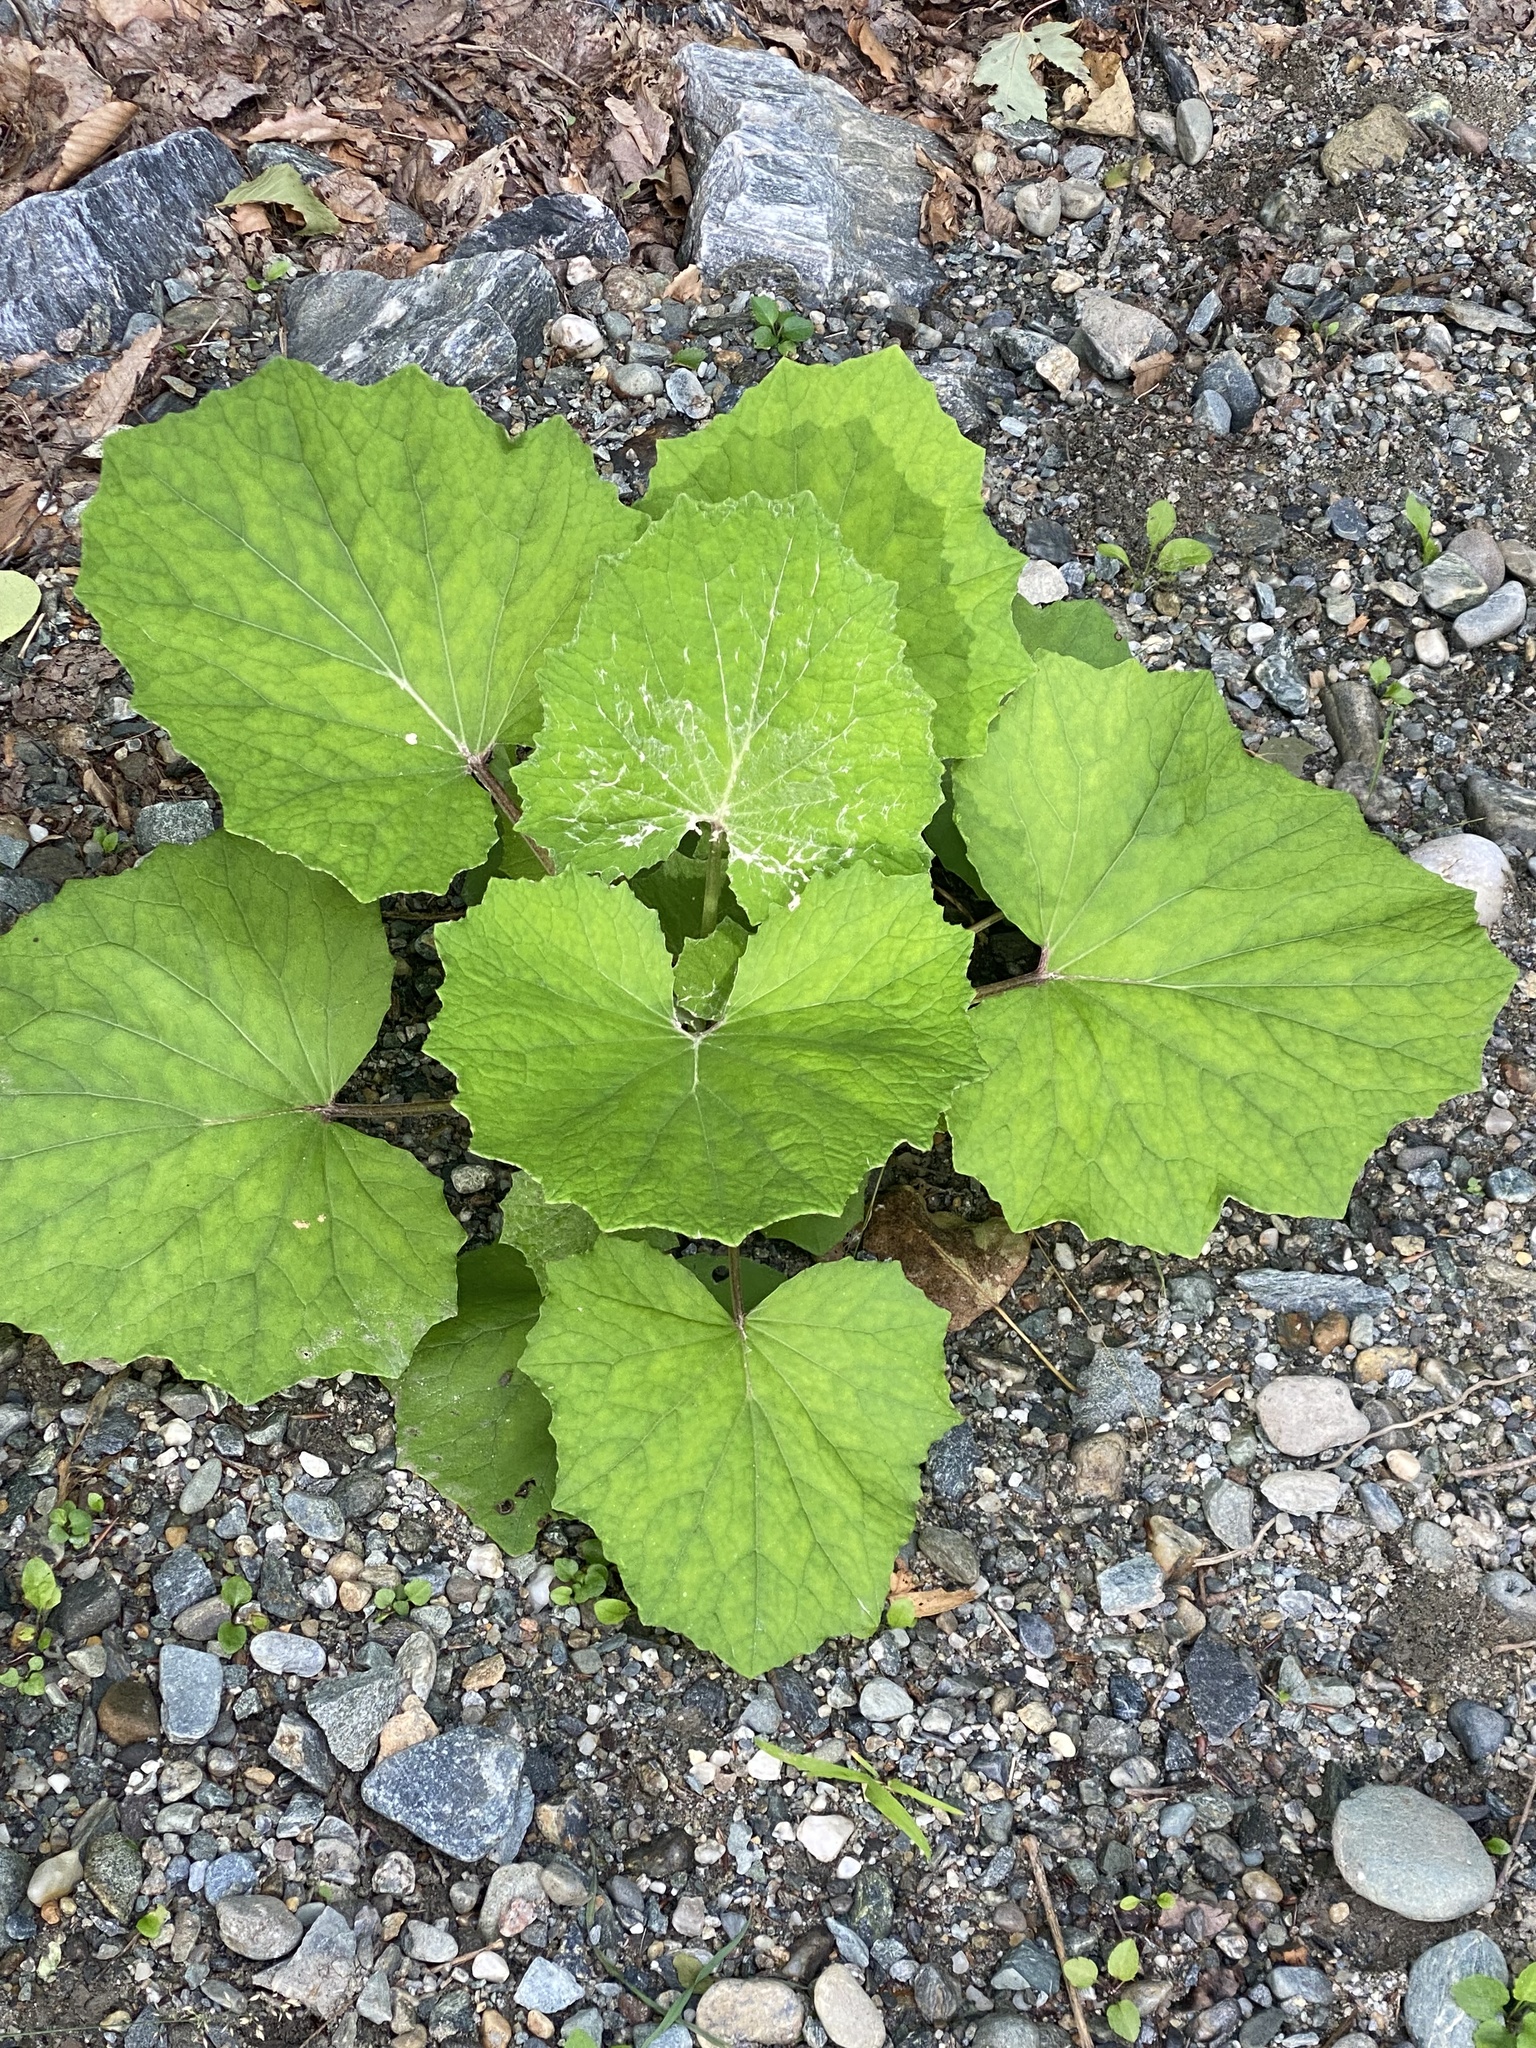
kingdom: Plantae
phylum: Tracheophyta
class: Magnoliopsida
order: Asterales
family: Asteraceae
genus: Tussilago
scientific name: Tussilago farfara
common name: Coltsfoot
